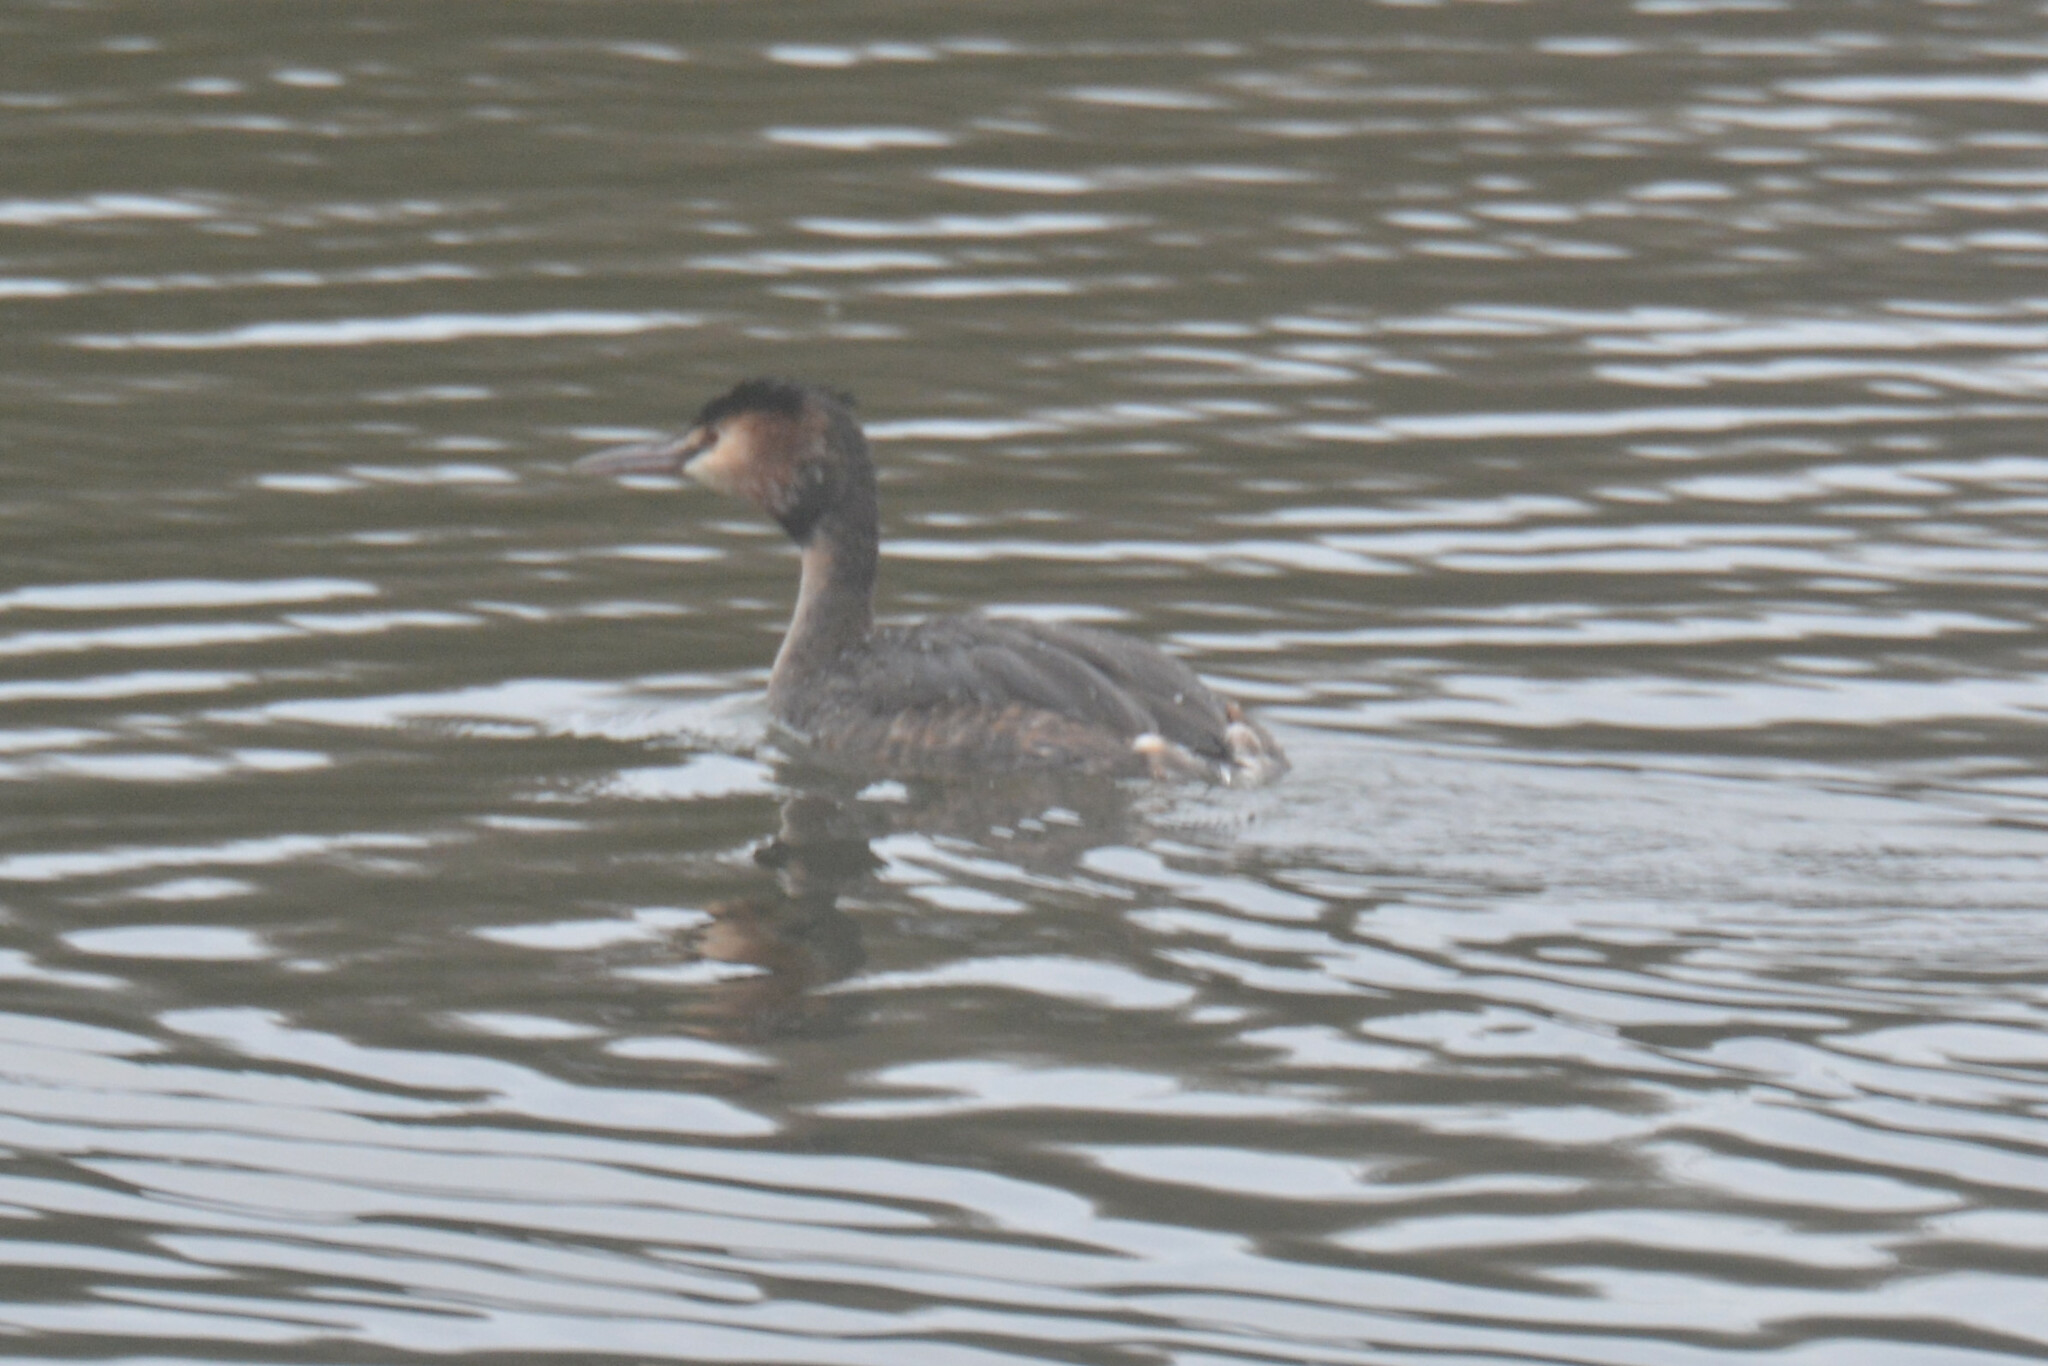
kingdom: Animalia
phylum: Chordata
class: Aves
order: Podicipediformes
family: Podicipedidae
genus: Podiceps
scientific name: Podiceps cristatus
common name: Great crested grebe
